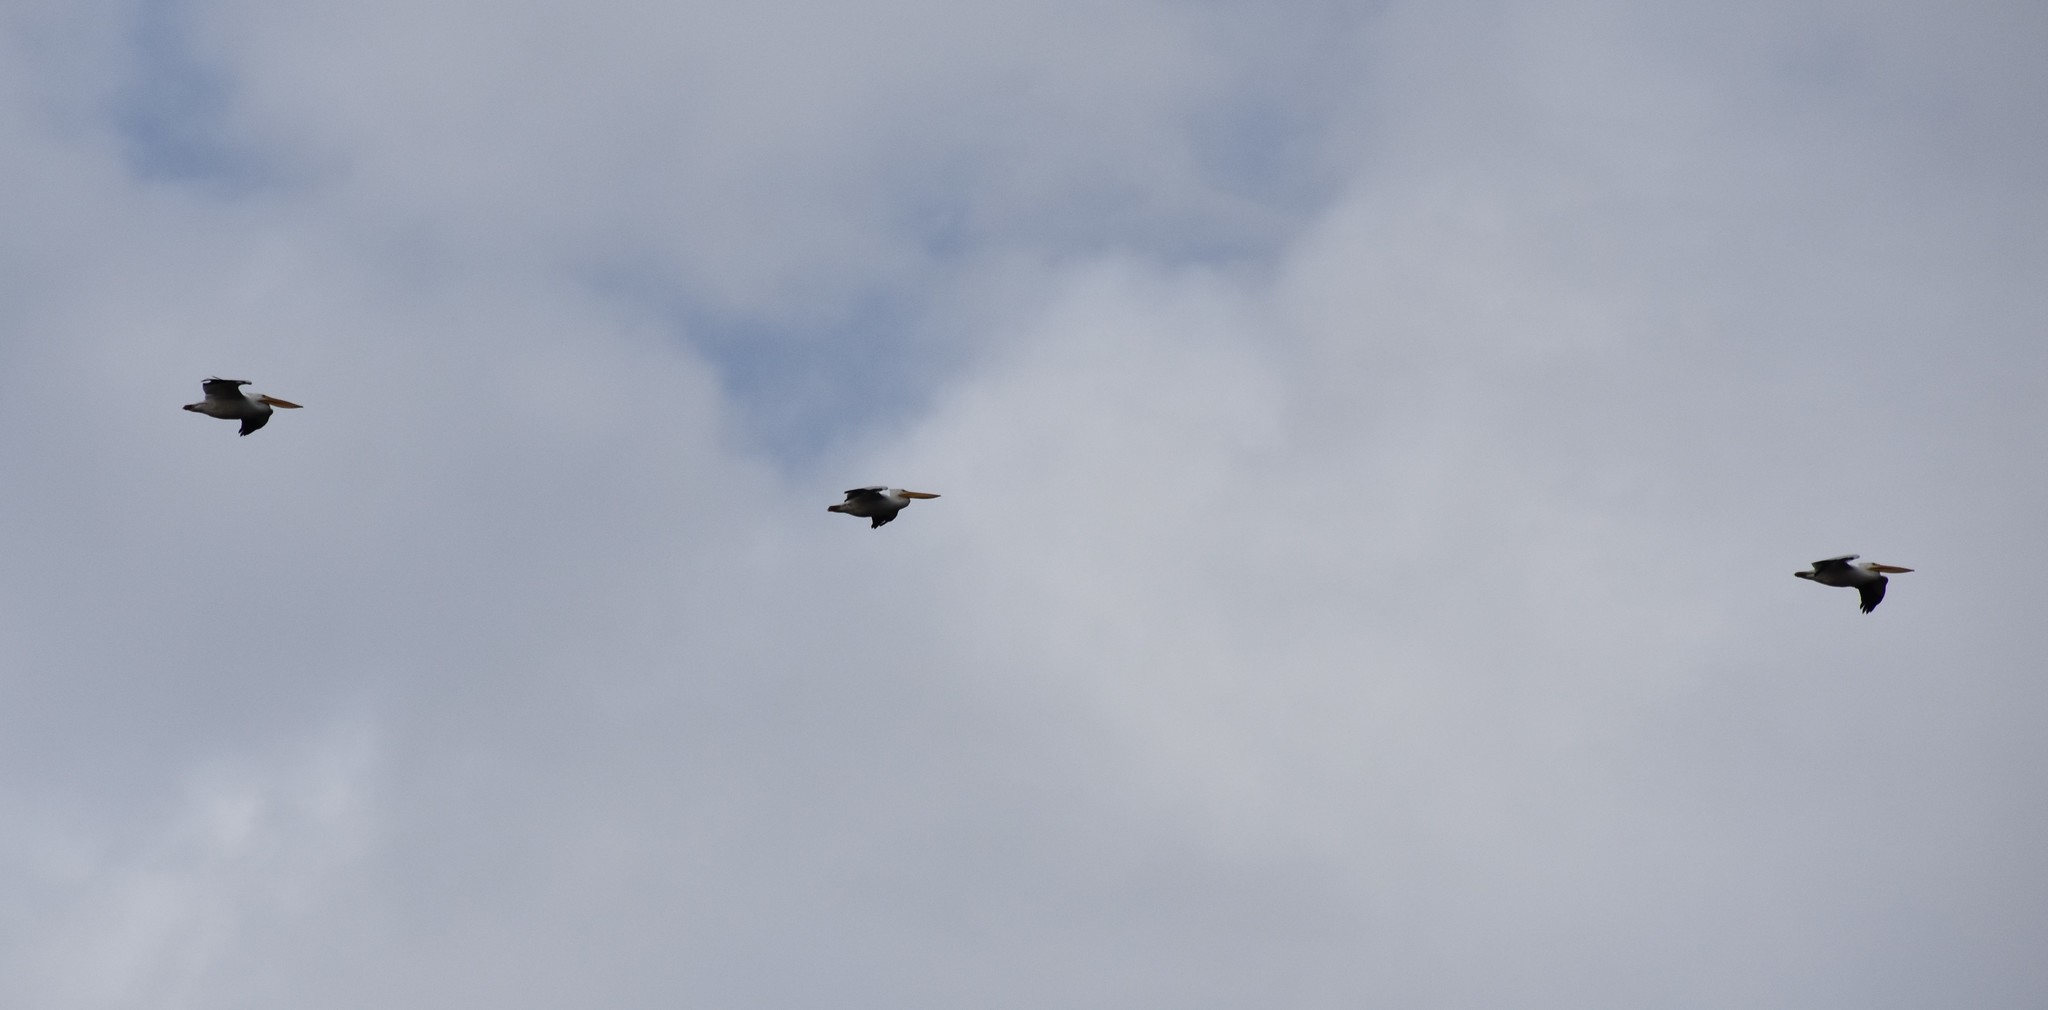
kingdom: Animalia
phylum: Chordata
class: Aves
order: Pelecaniformes
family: Pelecanidae
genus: Pelecanus
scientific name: Pelecanus erythrorhynchos
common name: American white pelican
